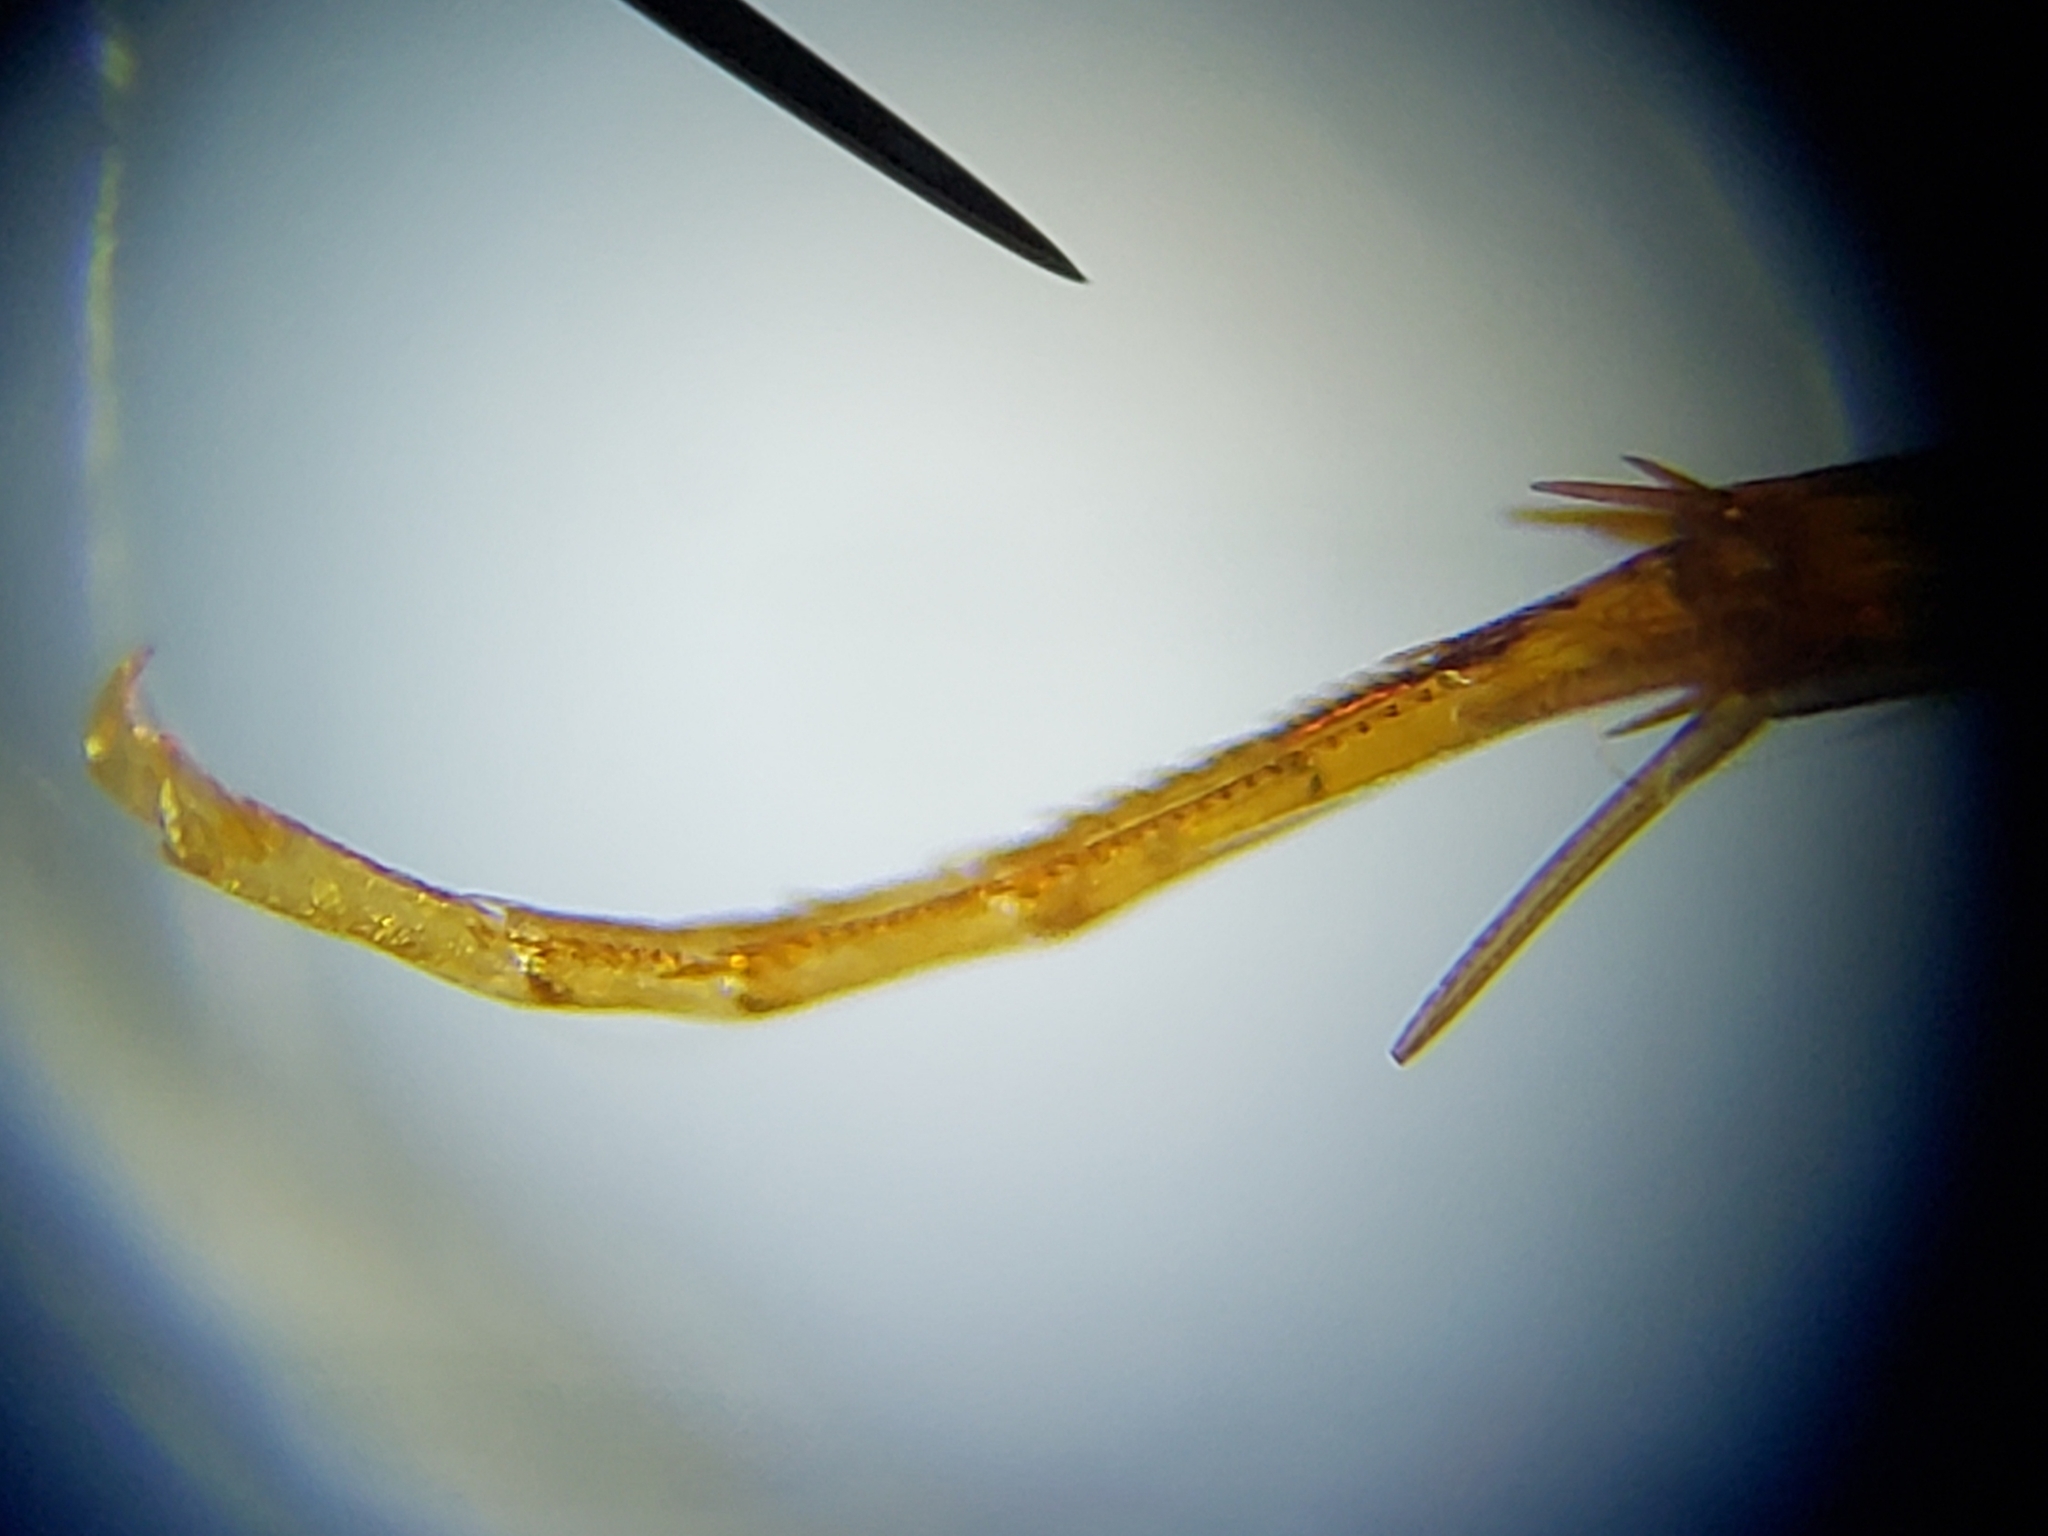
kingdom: Animalia
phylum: Arthropoda
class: Insecta
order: Coleoptera
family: Hydrophilidae
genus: Enochrus
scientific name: Enochrus ochraceus
